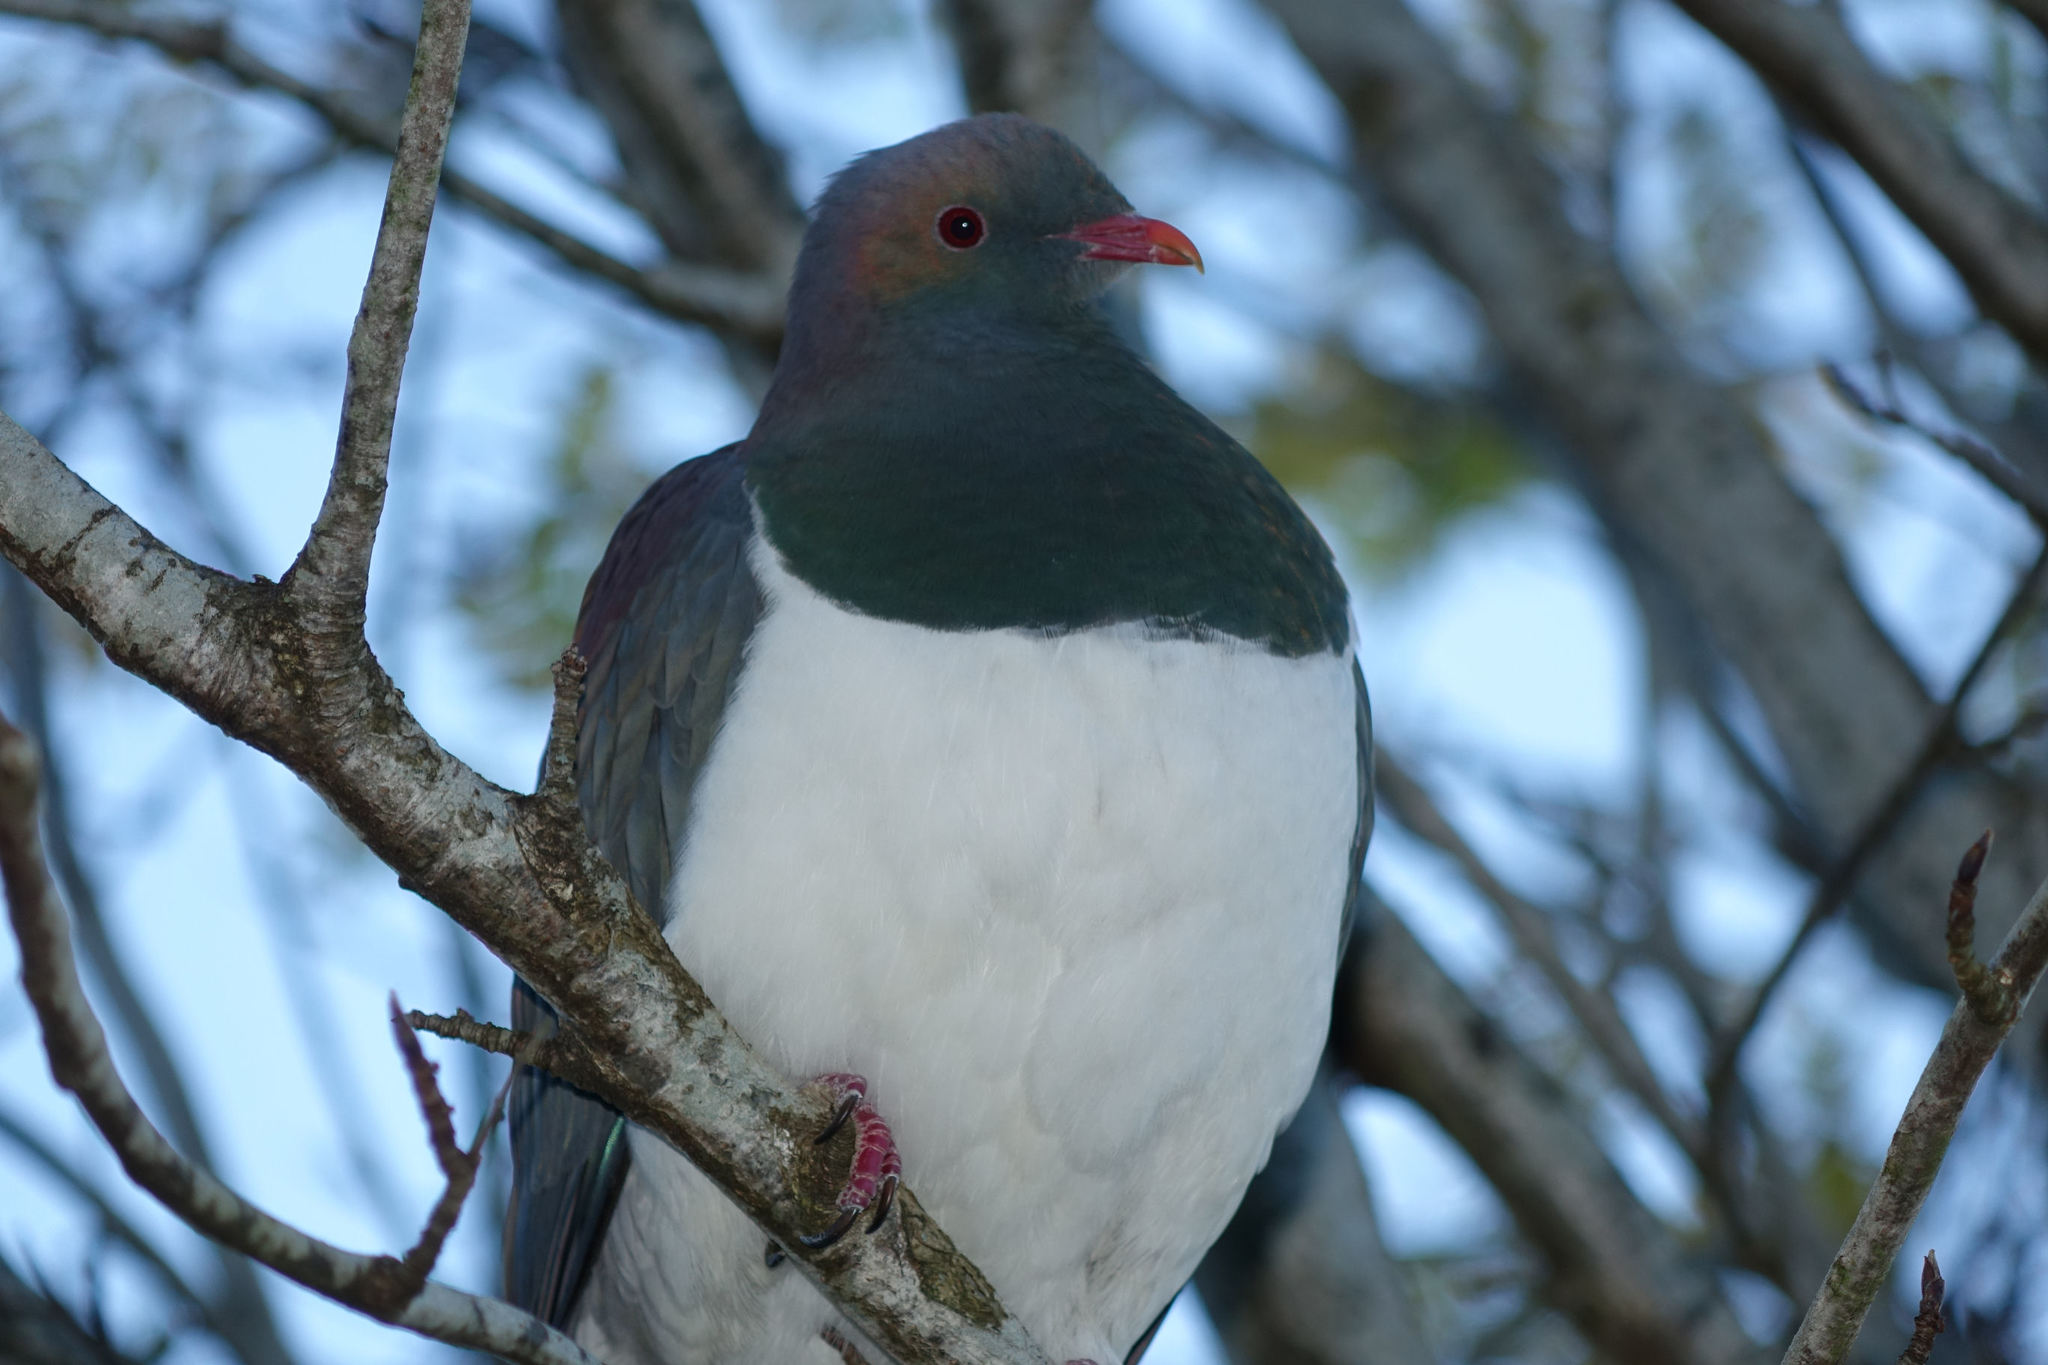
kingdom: Animalia
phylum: Chordata
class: Aves
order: Columbiformes
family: Columbidae
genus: Hemiphaga
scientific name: Hemiphaga novaeseelandiae
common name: New zealand pigeon
